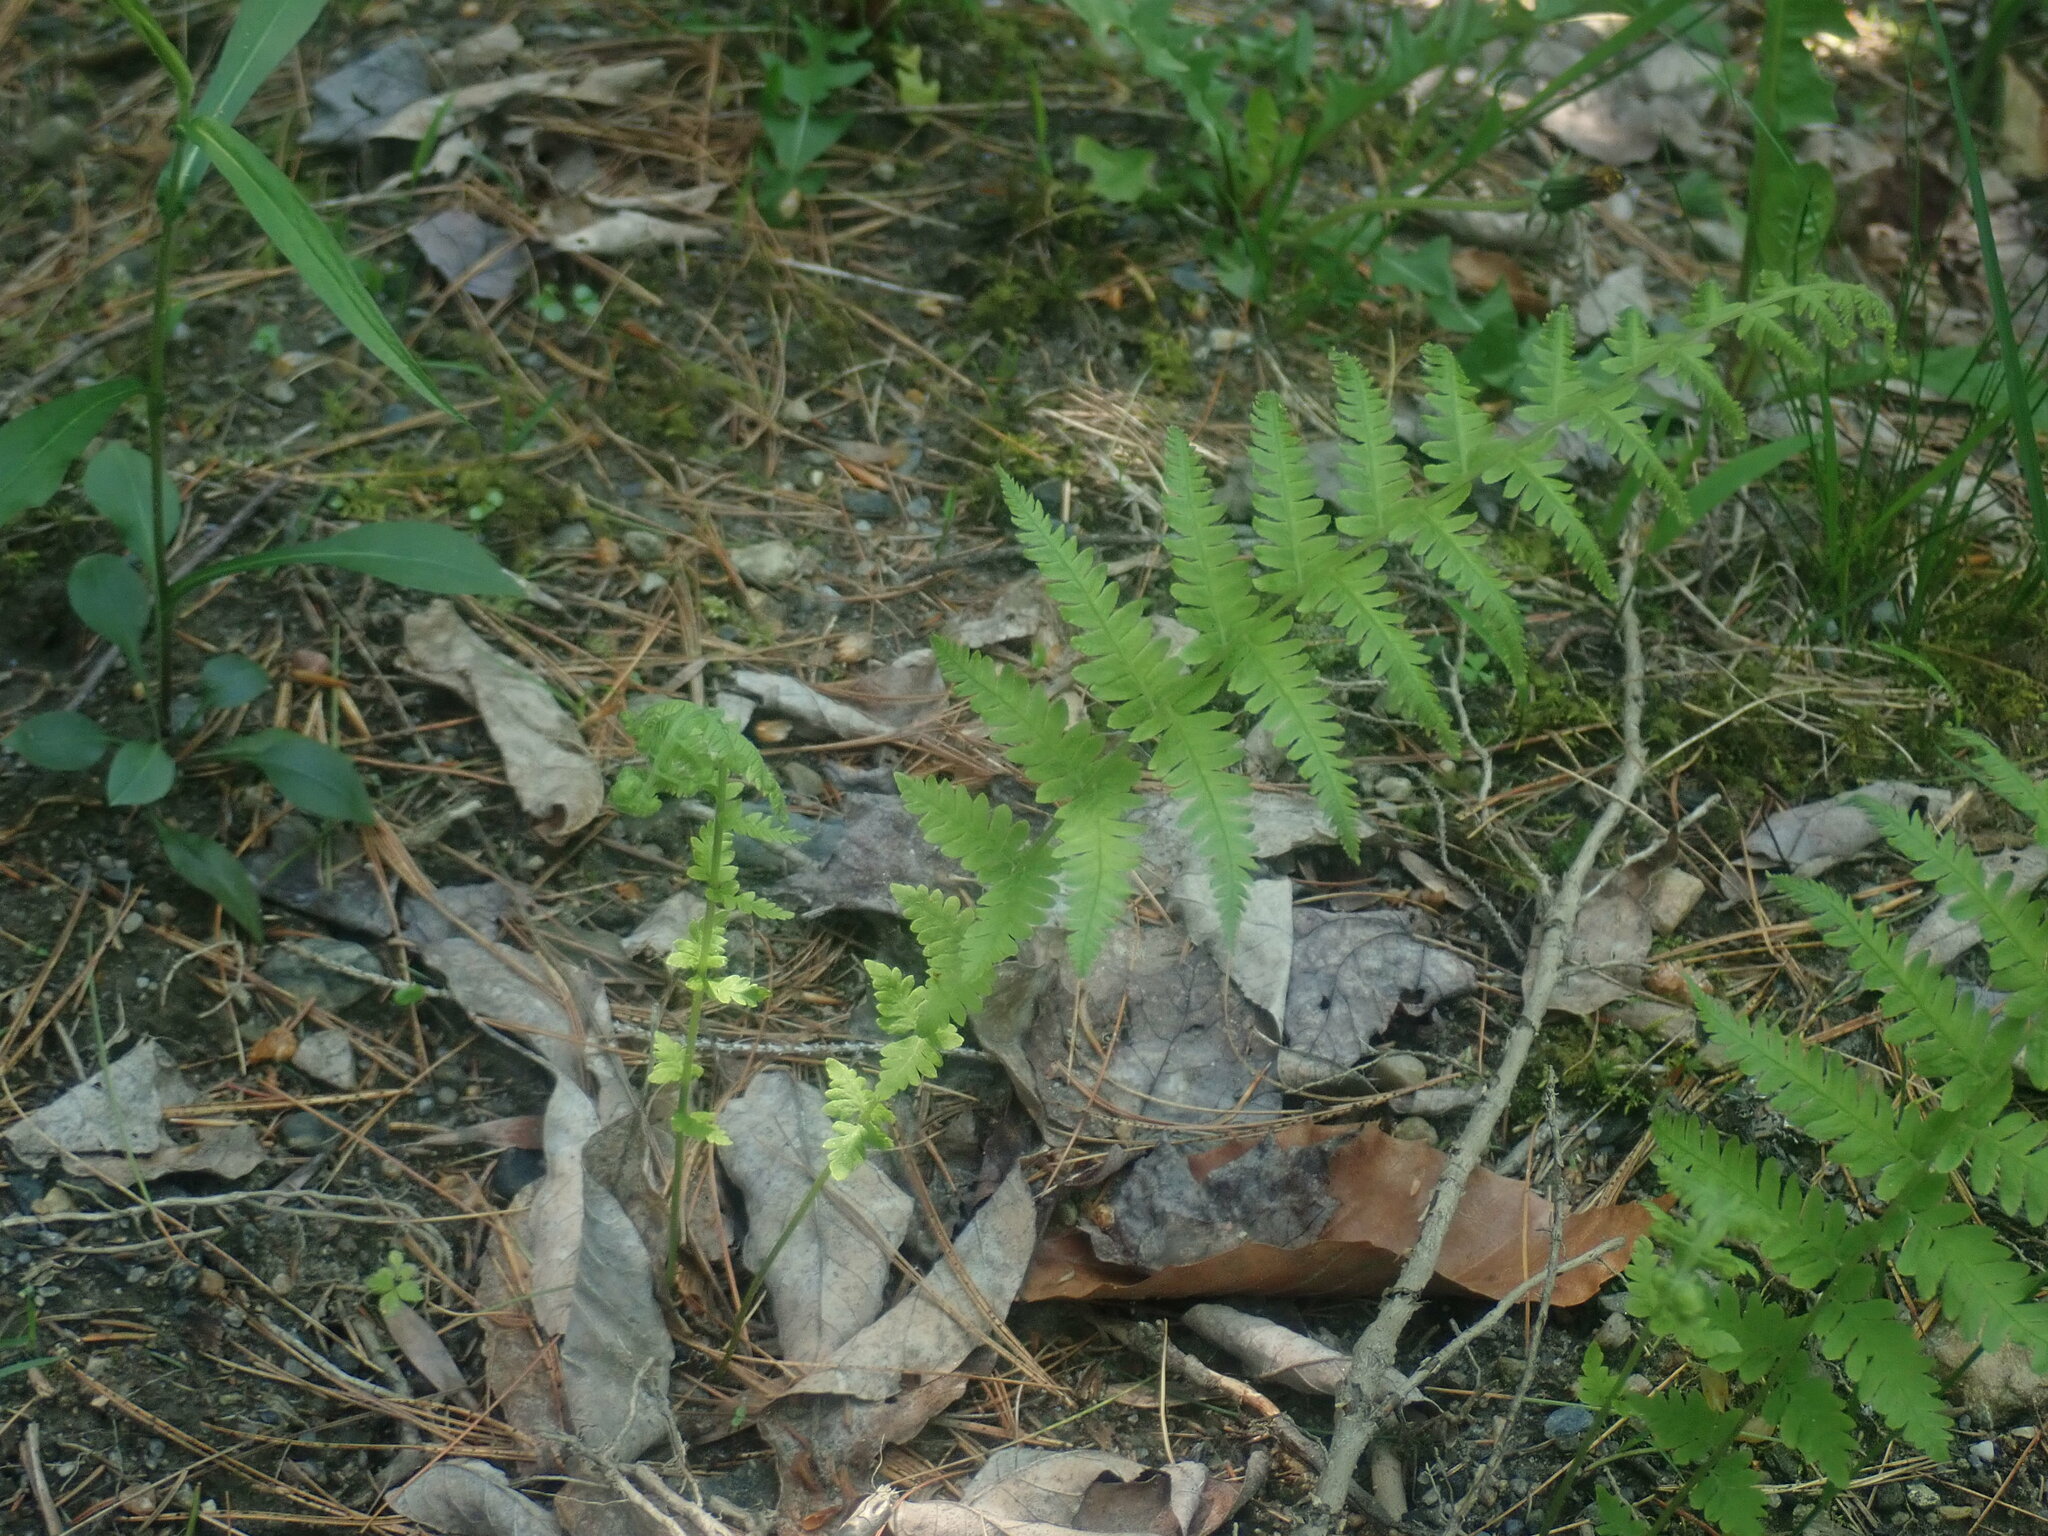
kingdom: Plantae
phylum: Tracheophyta
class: Polypodiopsida
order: Polypodiales
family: Thelypteridaceae
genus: Amauropelta
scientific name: Amauropelta noveboracensis
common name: New york fern
